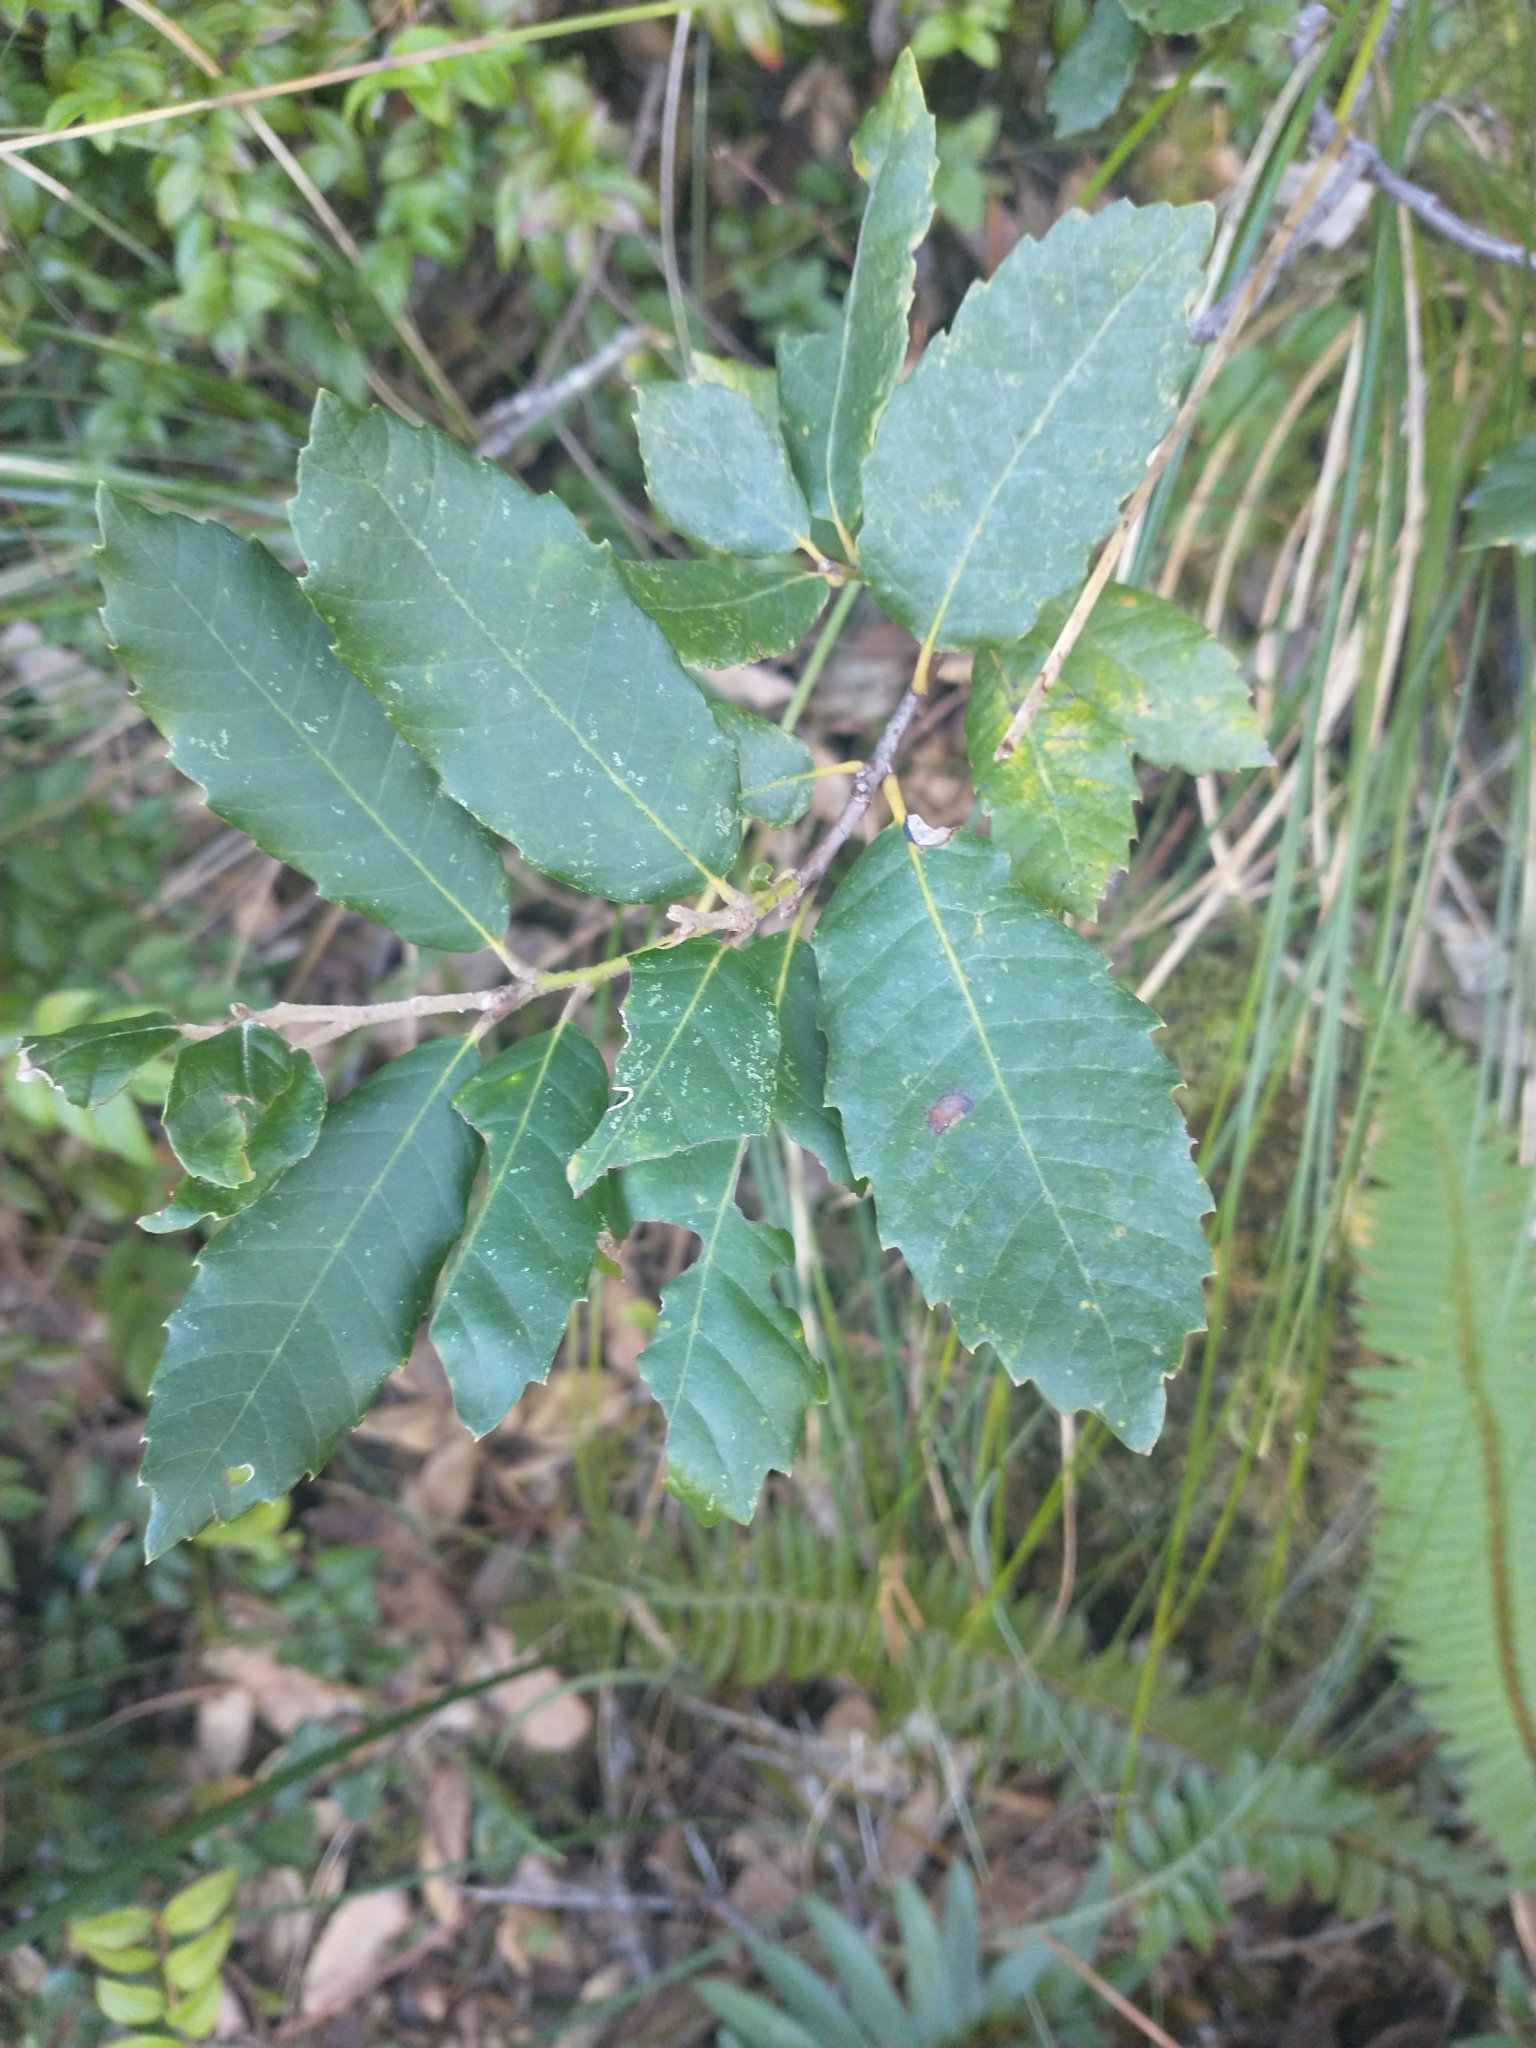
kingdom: Plantae
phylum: Tracheophyta
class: Magnoliopsida
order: Fagales
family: Fagaceae
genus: Notholithocarpus
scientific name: Notholithocarpus densiflorus
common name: Tan bark oak
